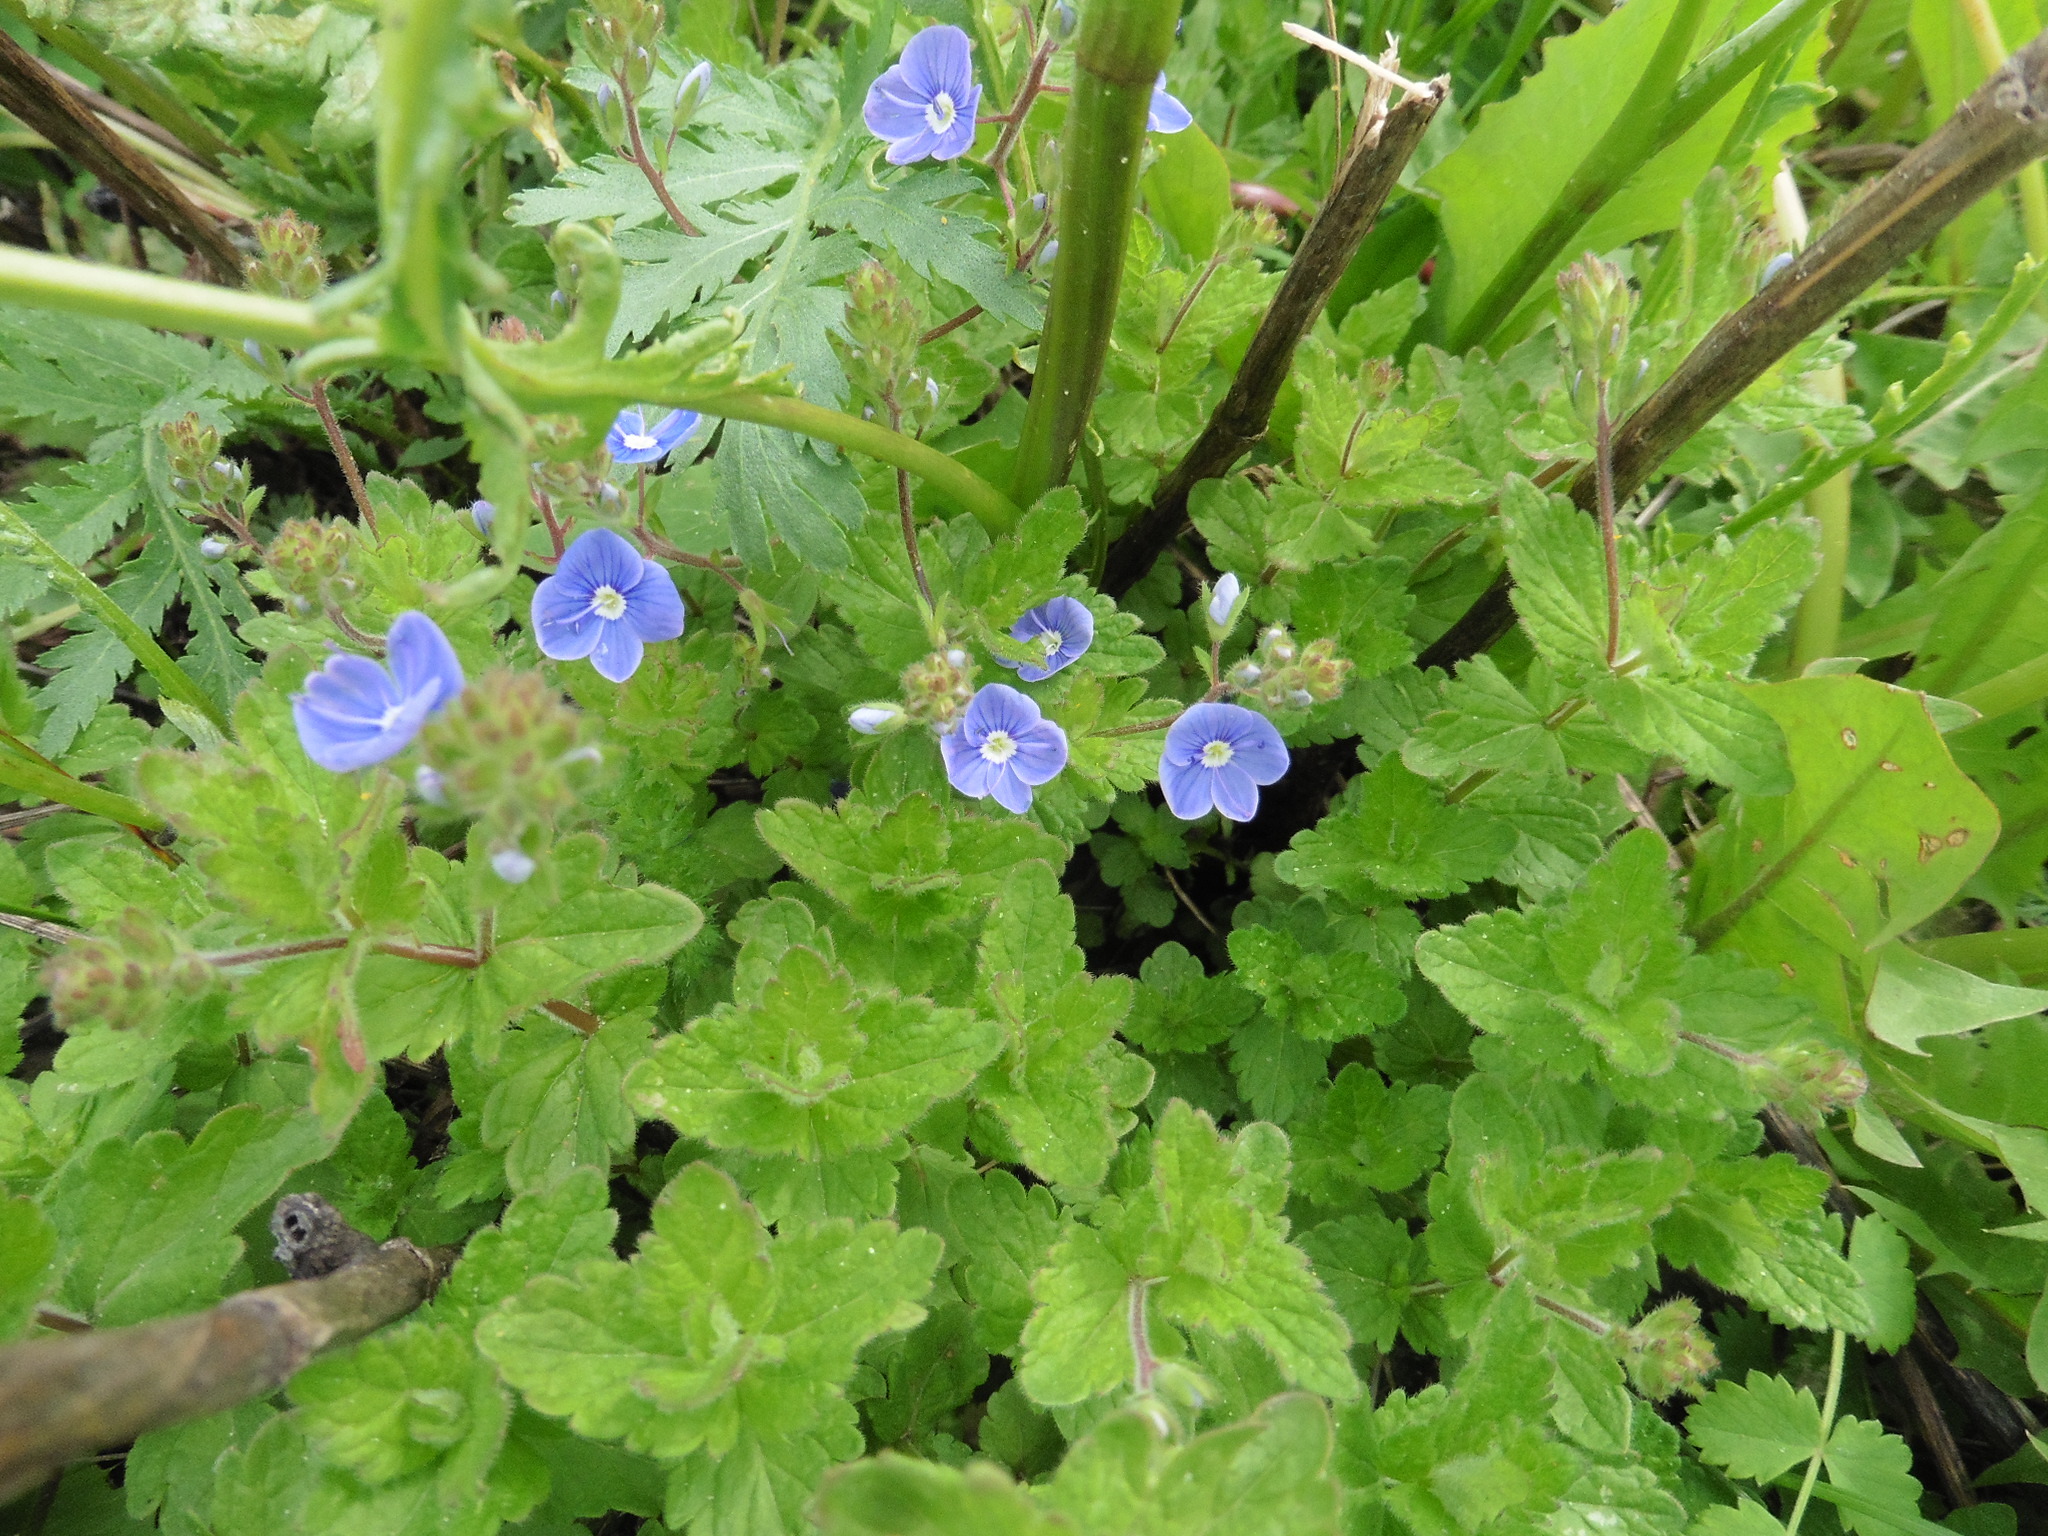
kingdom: Plantae
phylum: Tracheophyta
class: Magnoliopsida
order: Lamiales
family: Plantaginaceae
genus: Veronica
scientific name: Veronica chamaedrys
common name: Germander speedwell
